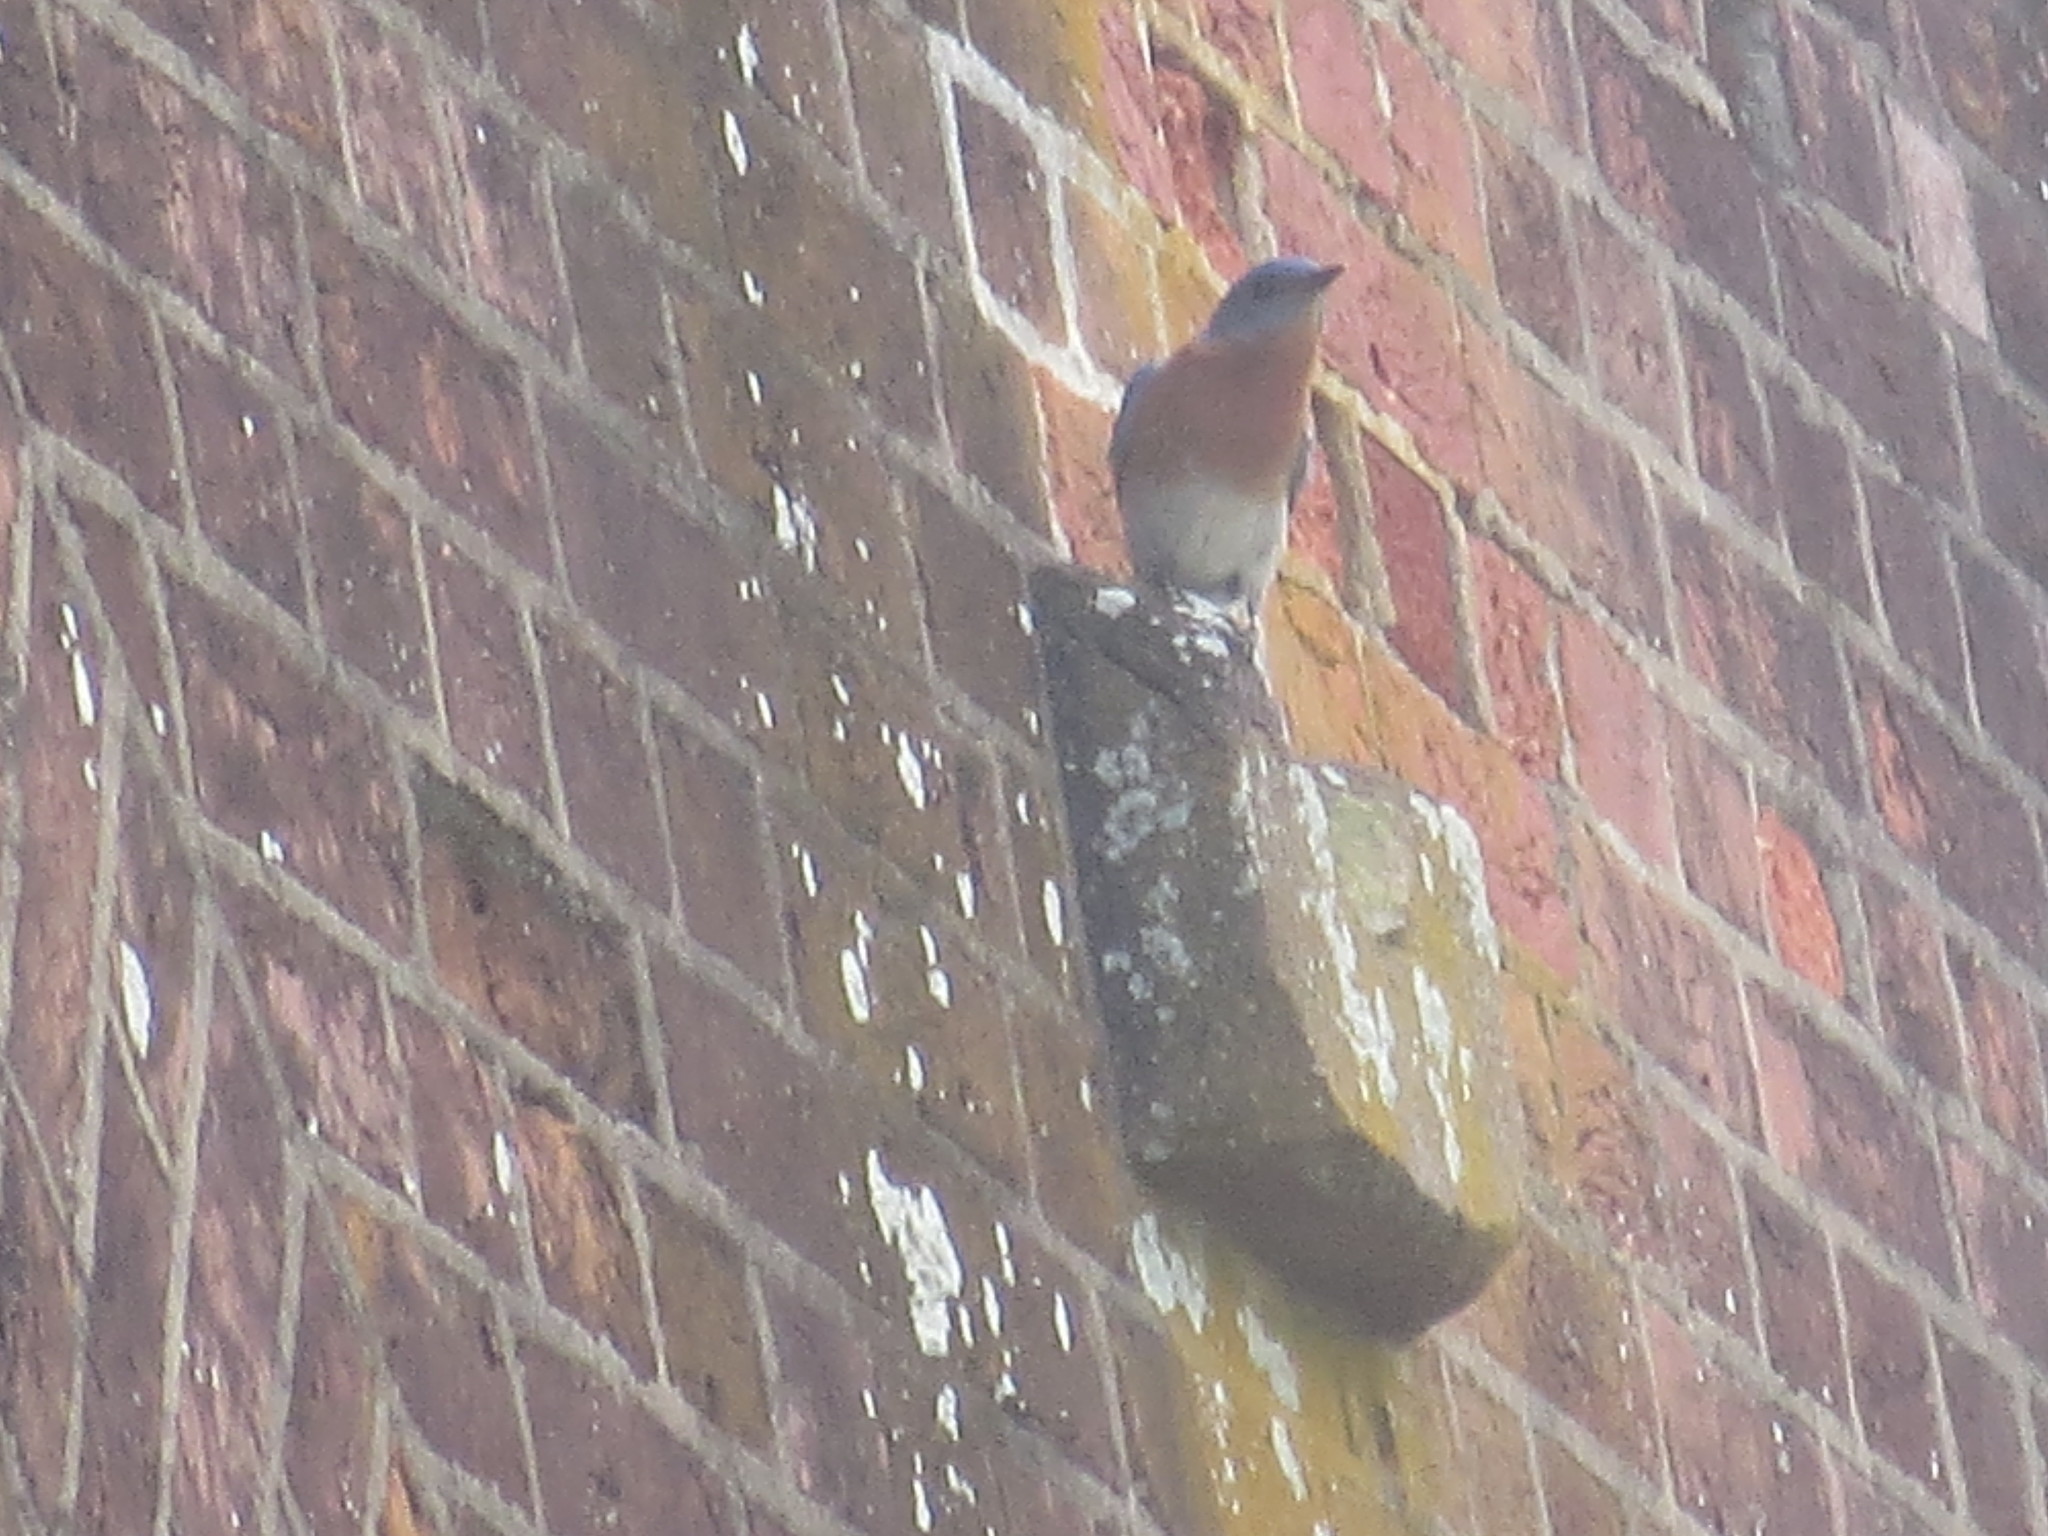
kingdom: Animalia
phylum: Chordata
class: Aves
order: Passeriformes
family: Turdidae
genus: Sialia
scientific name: Sialia sialis
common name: Eastern bluebird
